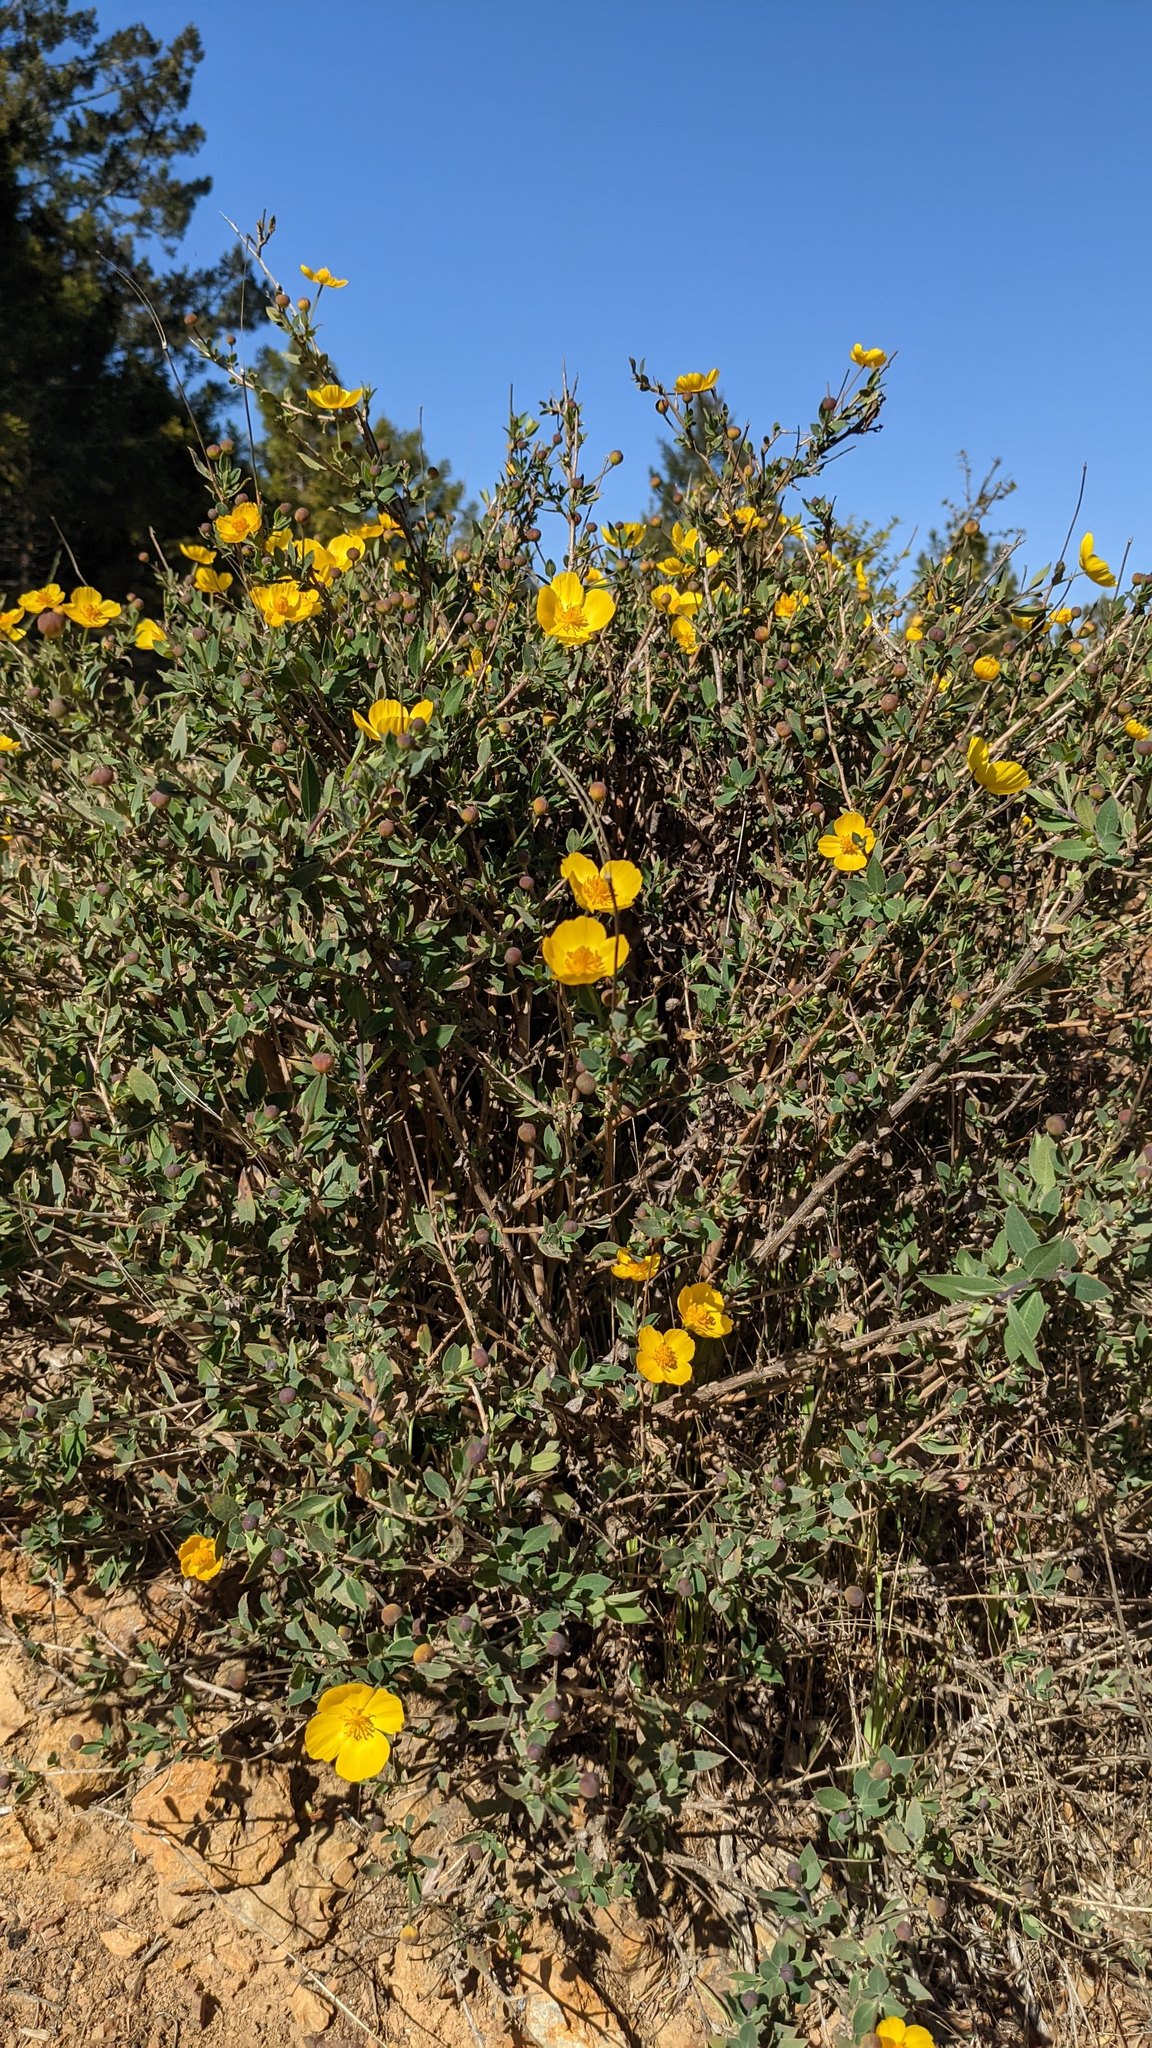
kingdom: Plantae
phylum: Tracheophyta
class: Magnoliopsida
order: Ranunculales
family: Papaveraceae
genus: Dendromecon
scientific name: Dendromecon rigida
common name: Tree poppy
